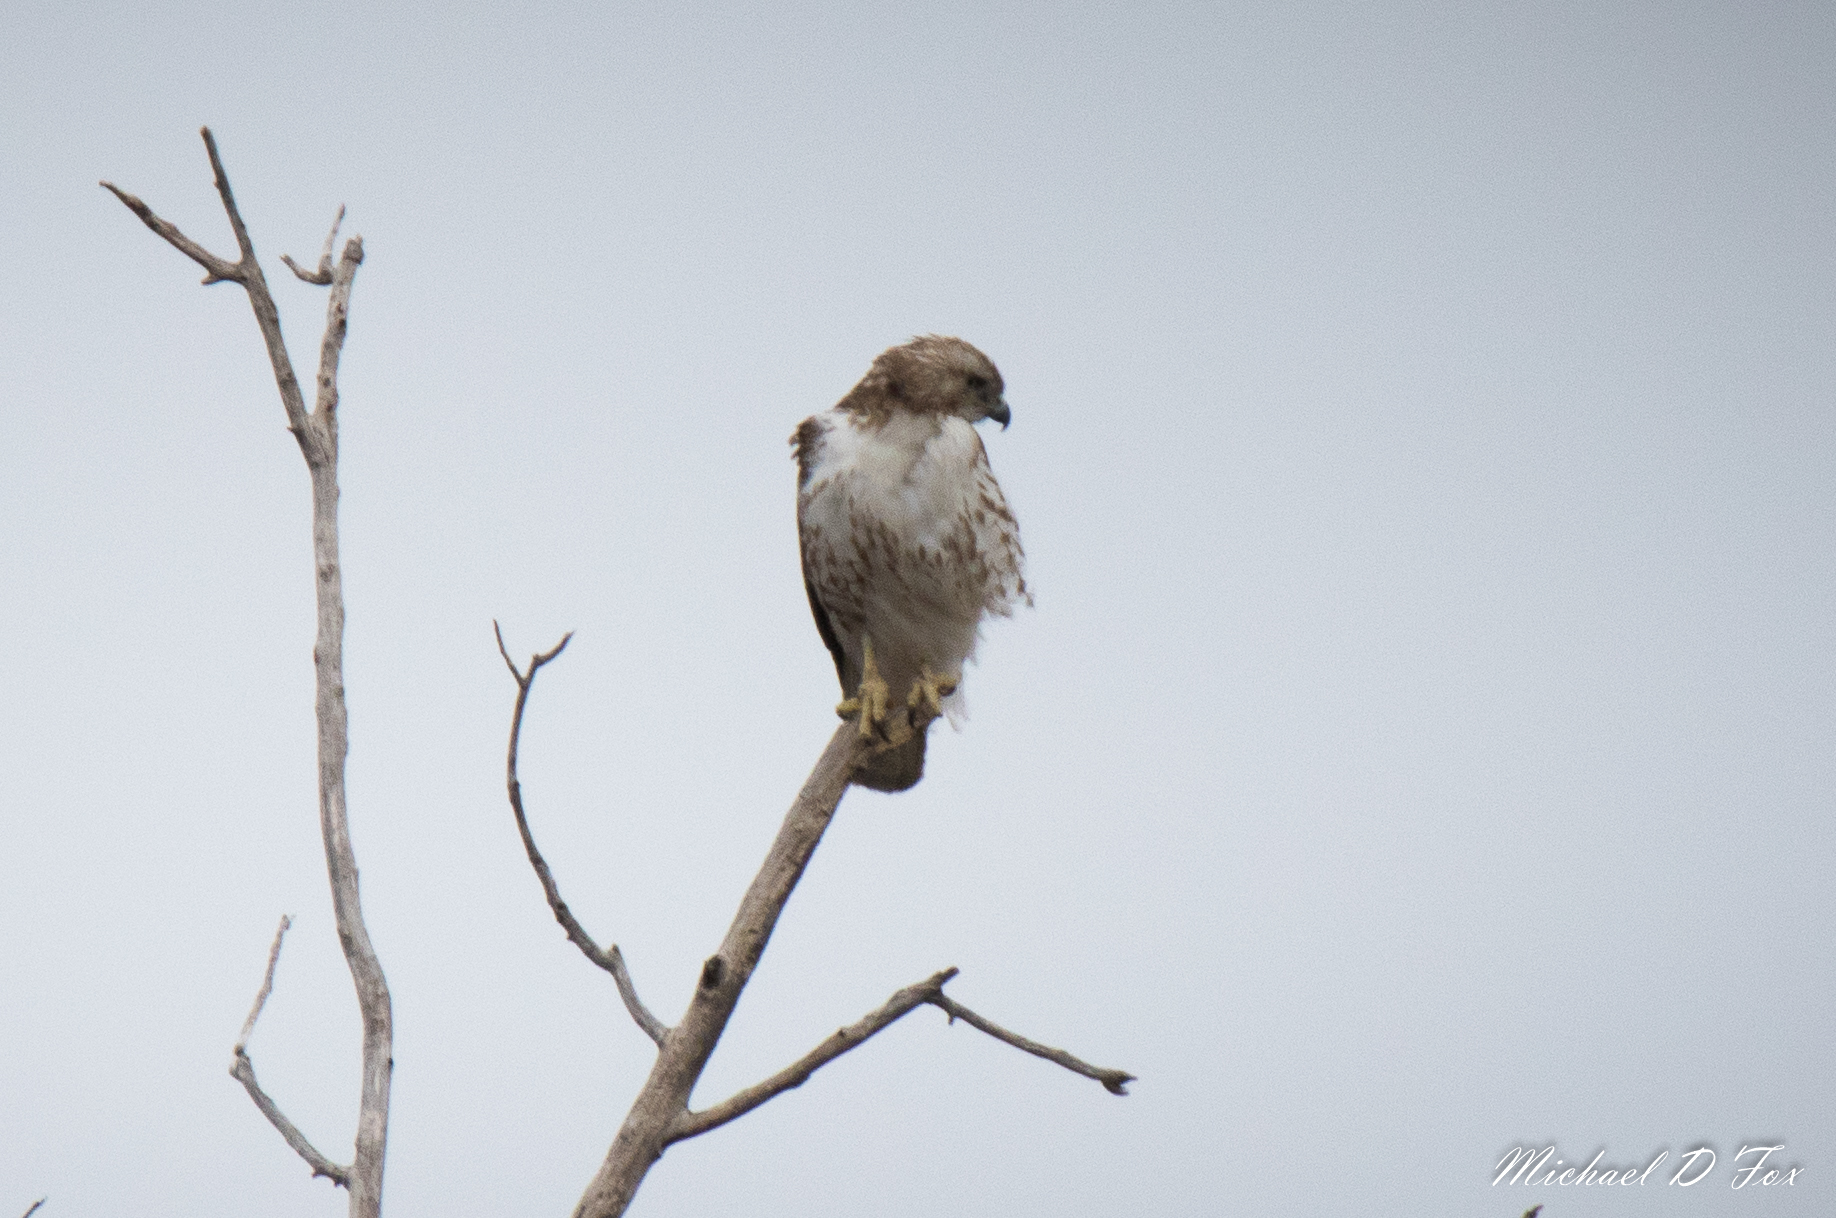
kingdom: Animalia
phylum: Chordata
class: Aves
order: Accipitriformes
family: Accipitridae
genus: Buteo
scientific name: Buteo jamaicensis
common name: Red-tailed hawk
